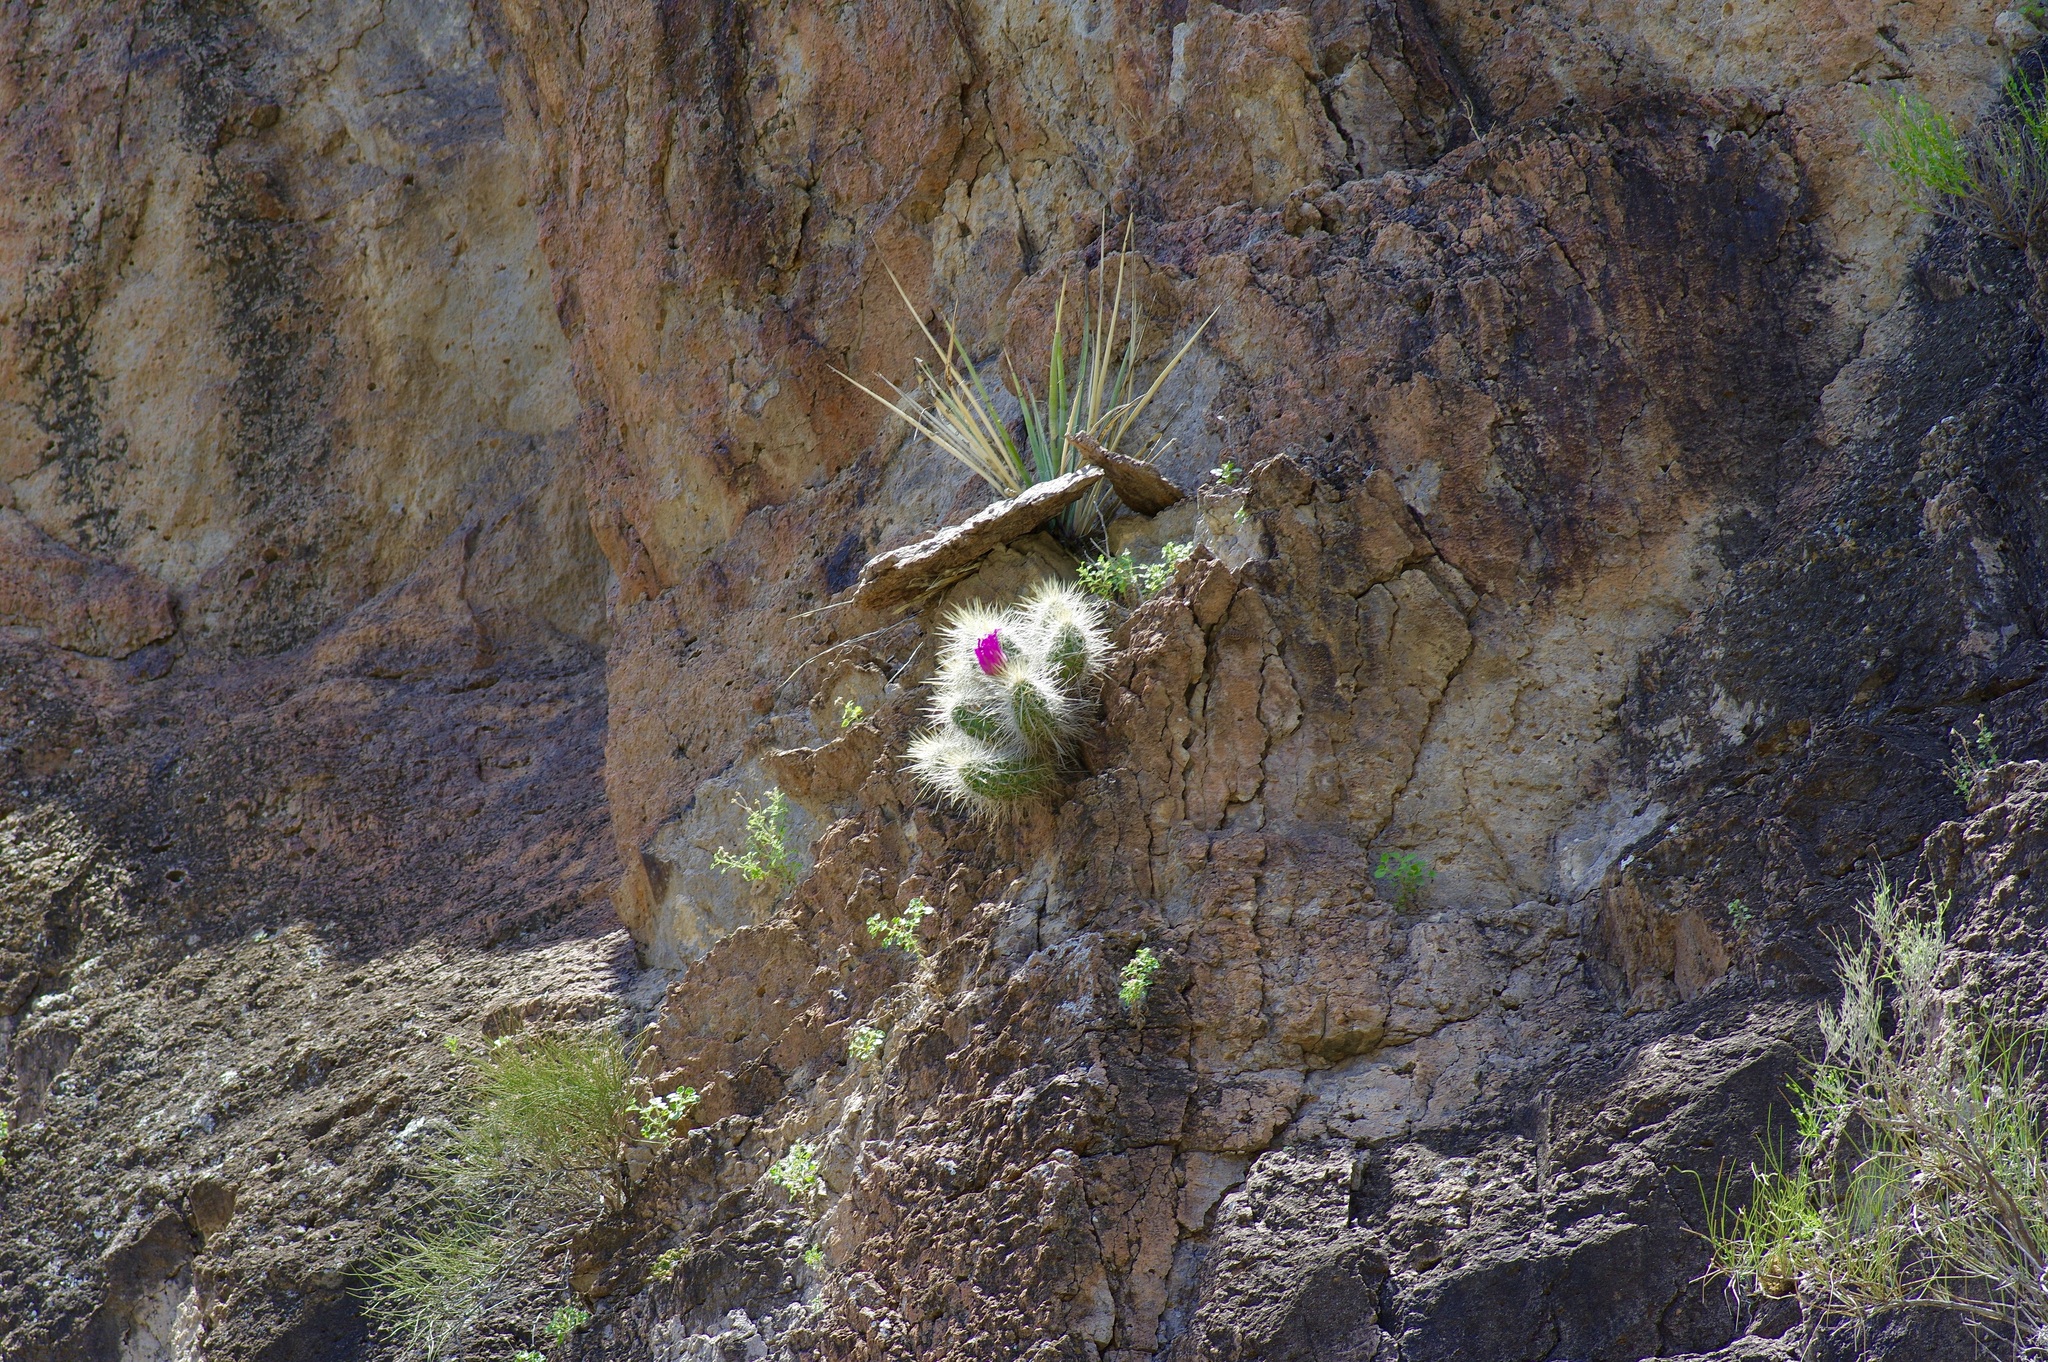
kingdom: Plantae
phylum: Tracheophyta
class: Magnoliopsida
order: Caryophyllales
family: Cactaceae
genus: Echinocereus
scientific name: Echinocereus stramineus
